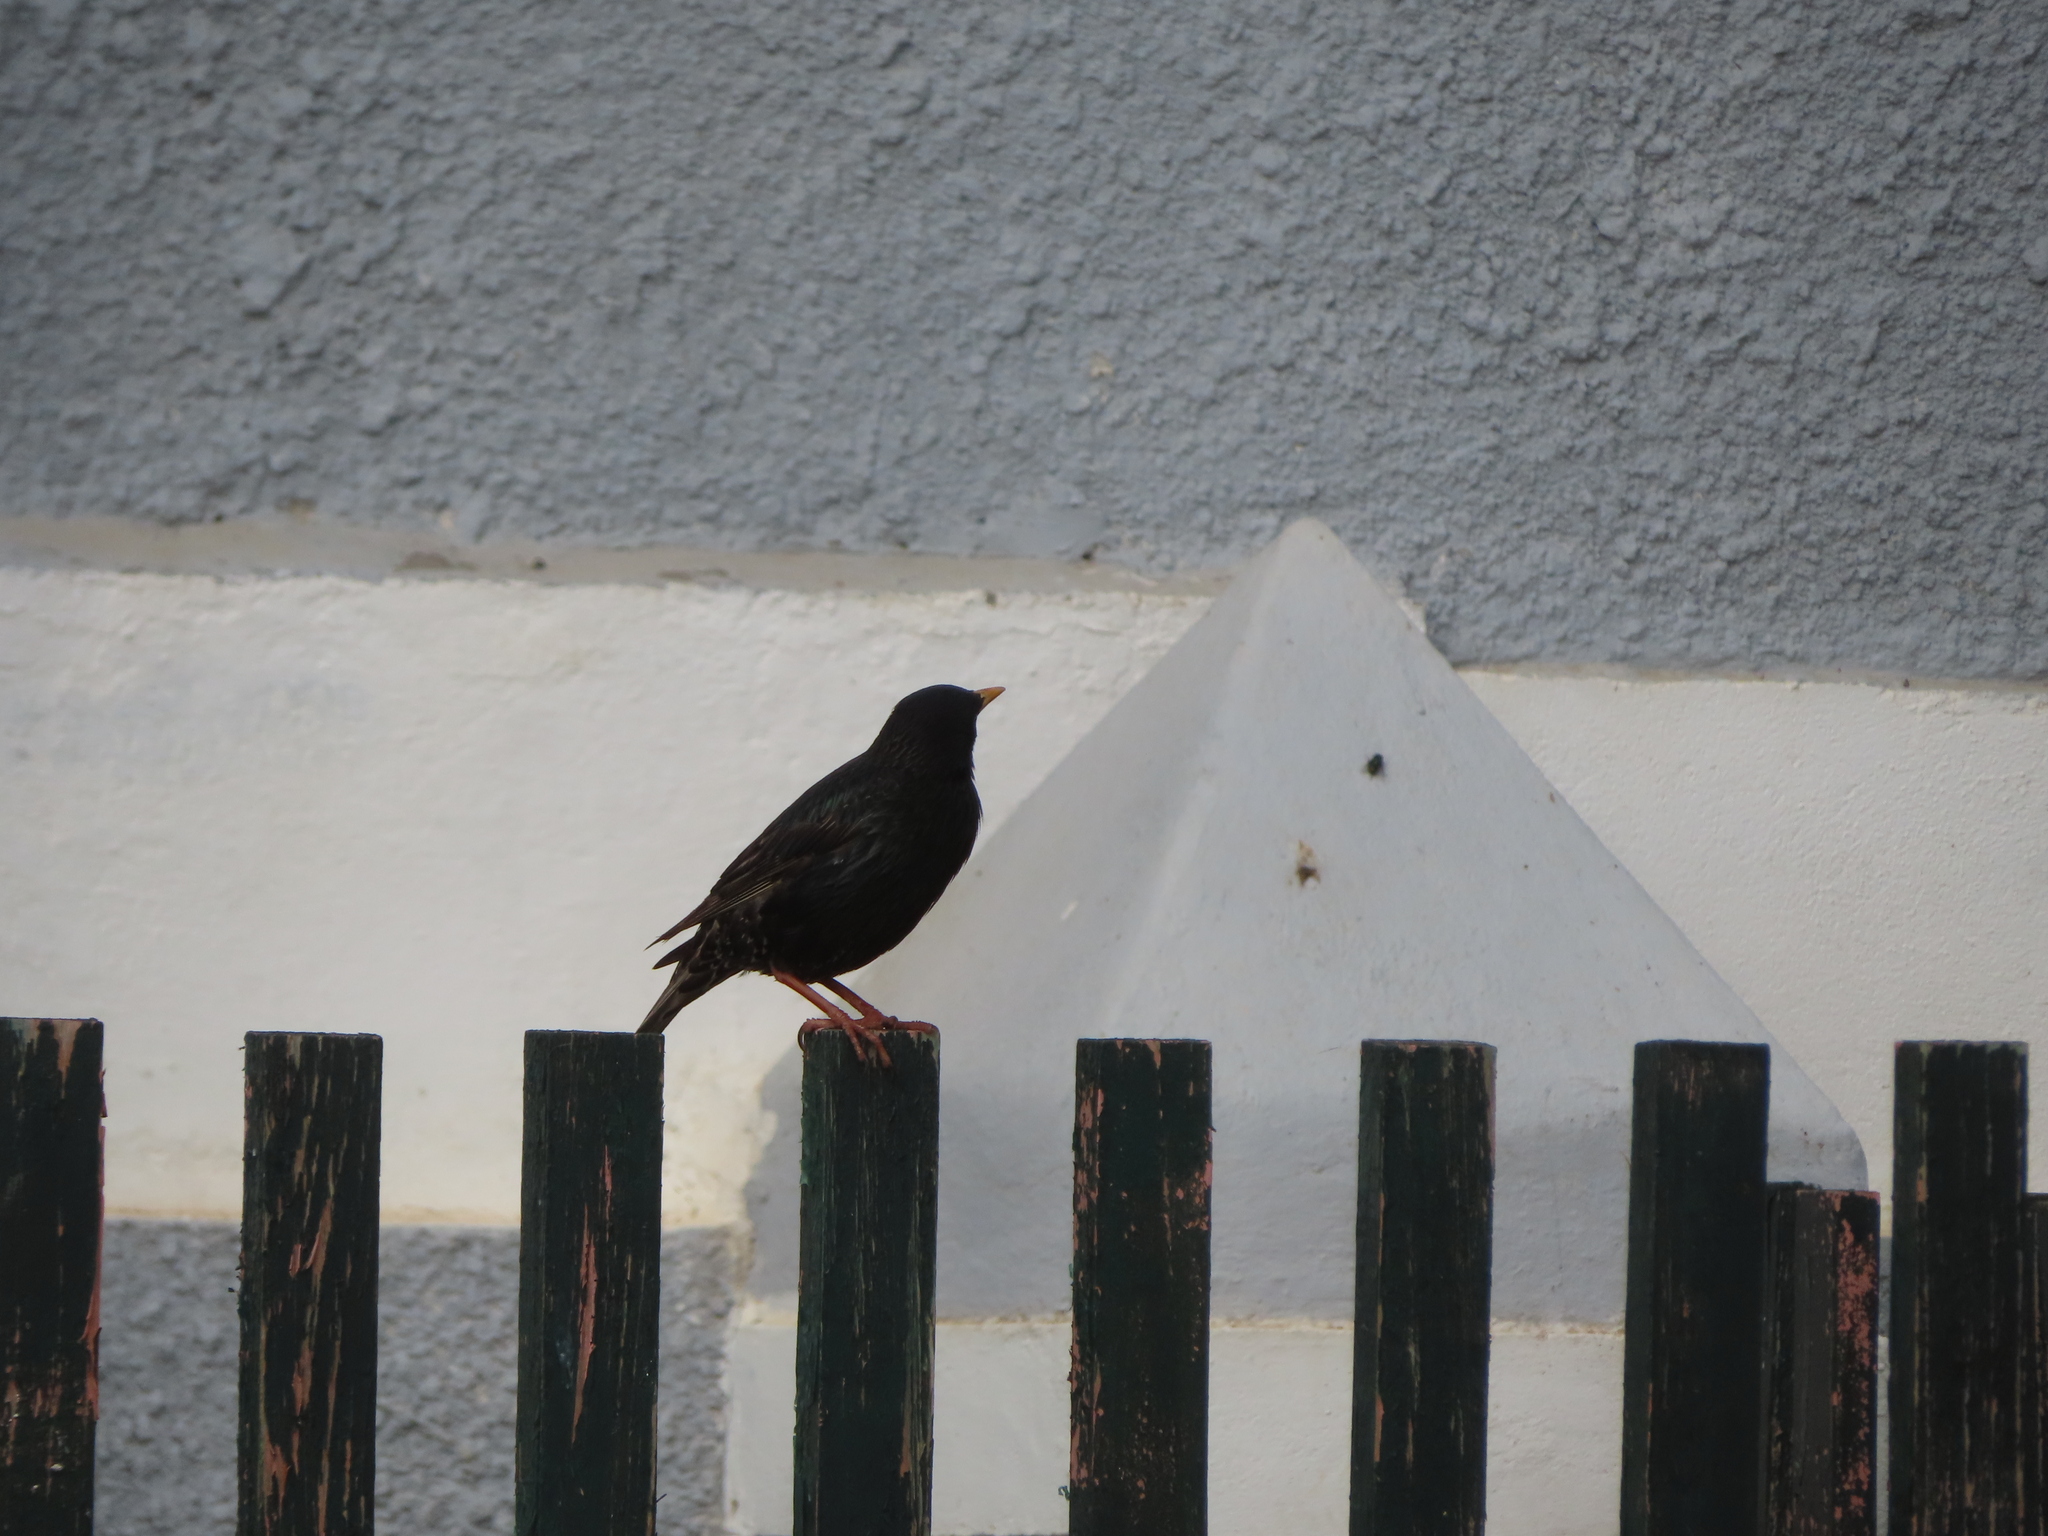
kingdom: Animalia
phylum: Chordata
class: Aves
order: Passeriformes
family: Sturnidae
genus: Sturnus
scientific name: Sturnus vulgaris
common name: Common starling
